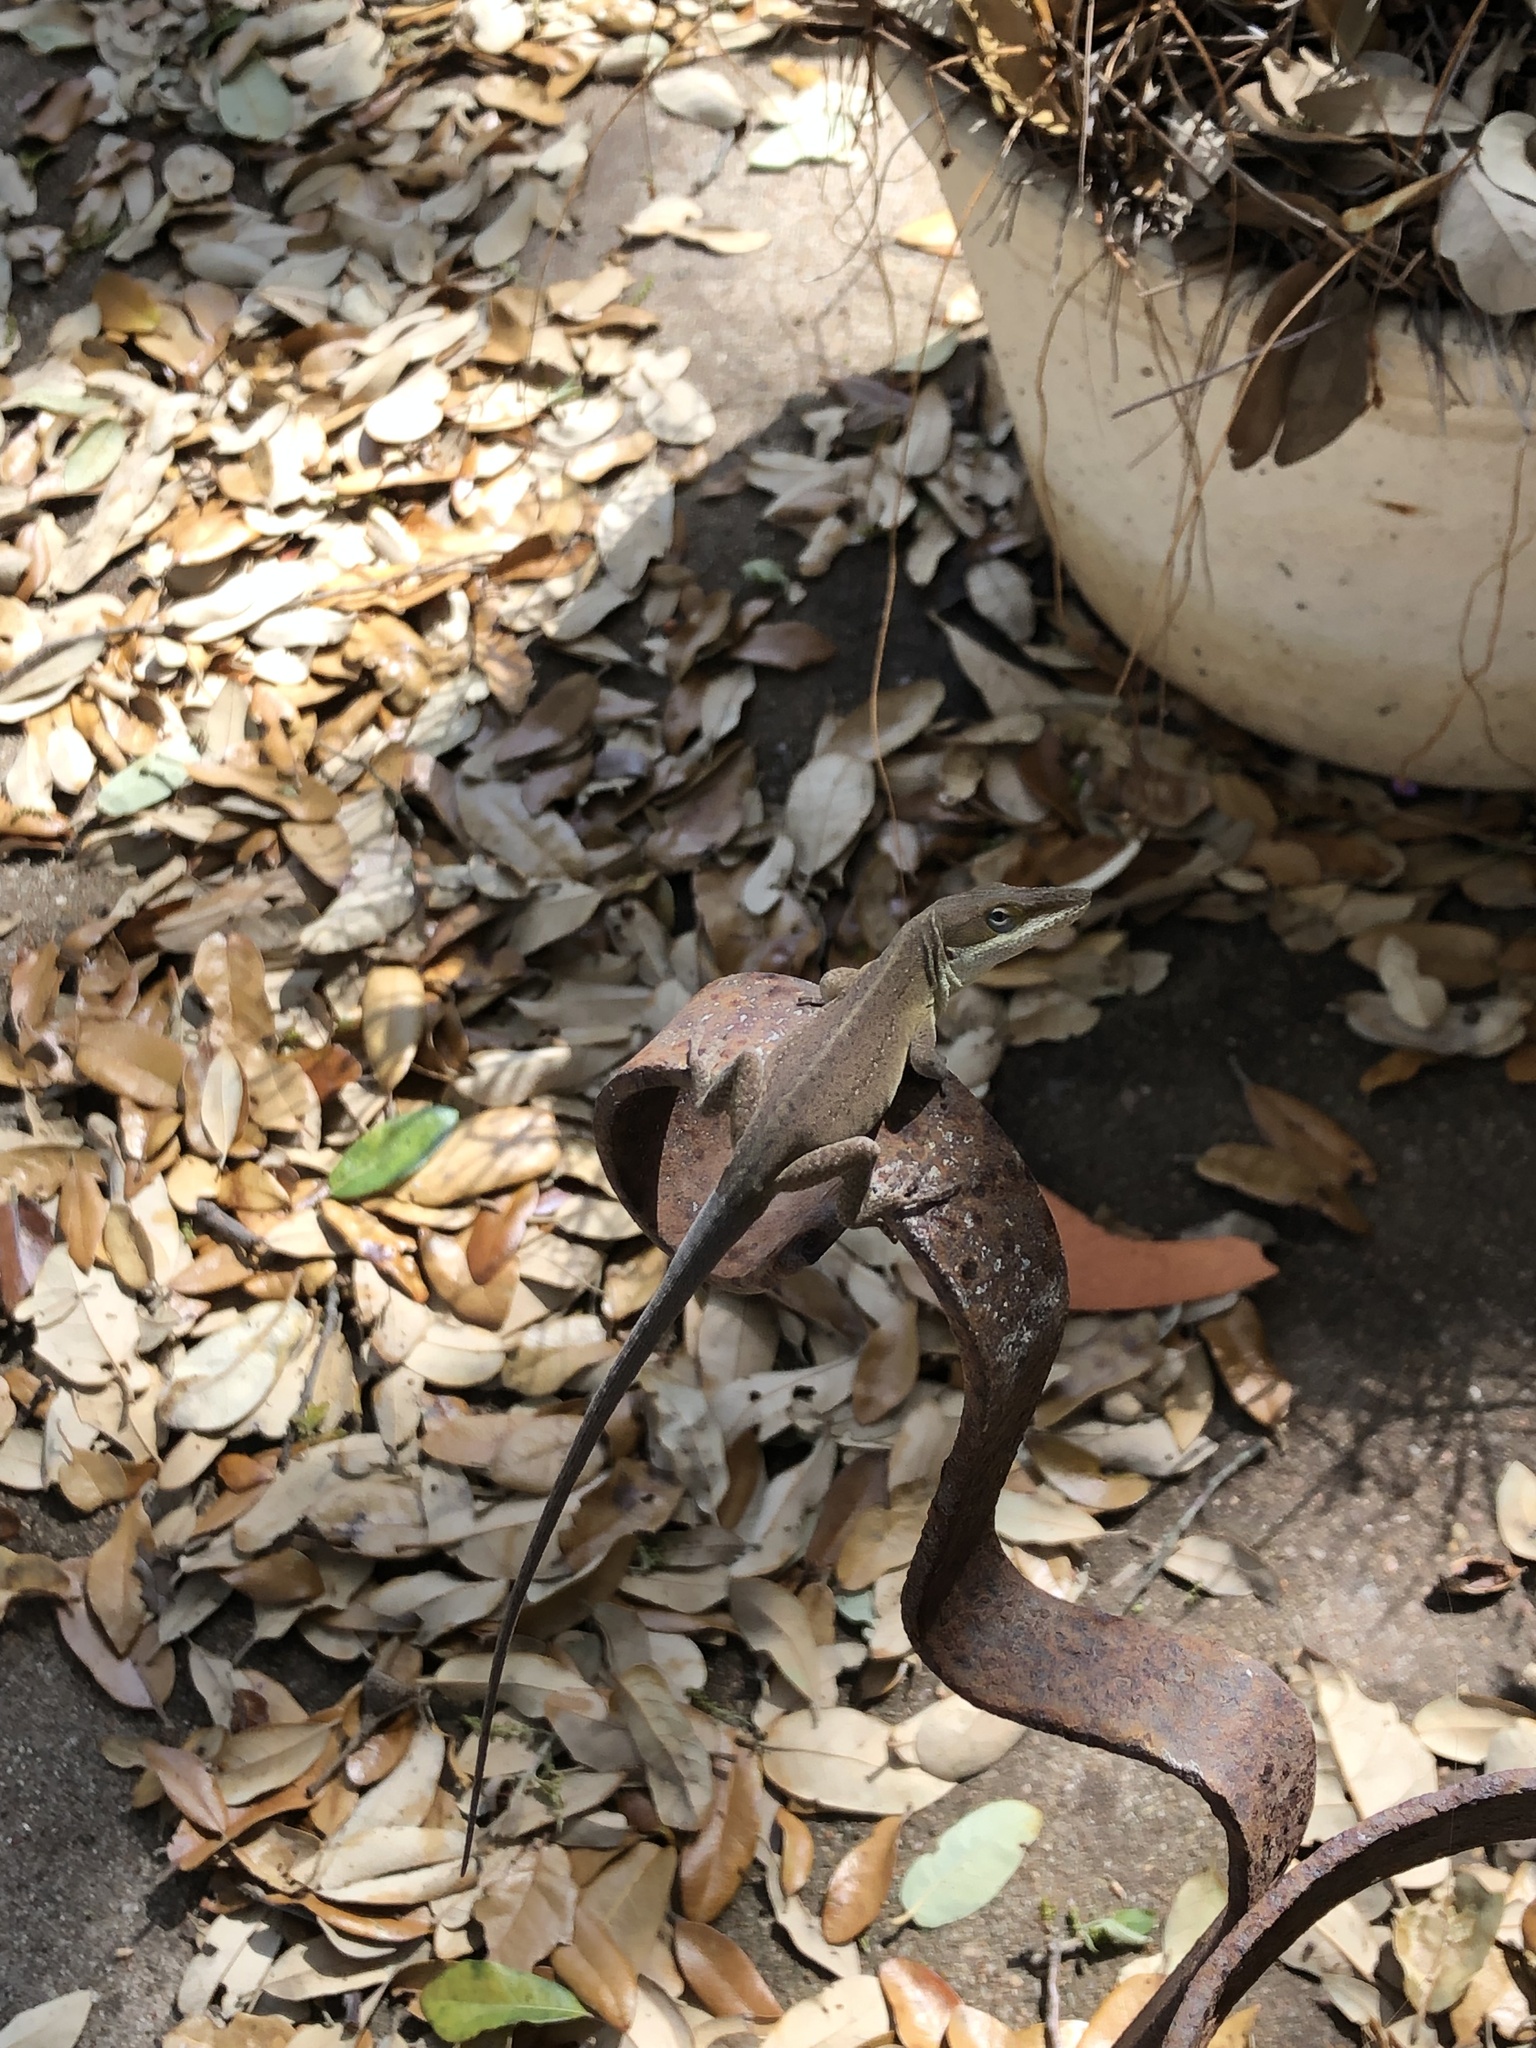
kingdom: Animalia
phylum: Chordata
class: Squamata
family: Dactyloidae
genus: Anolis
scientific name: Anolis carolinensis
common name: Green anole
